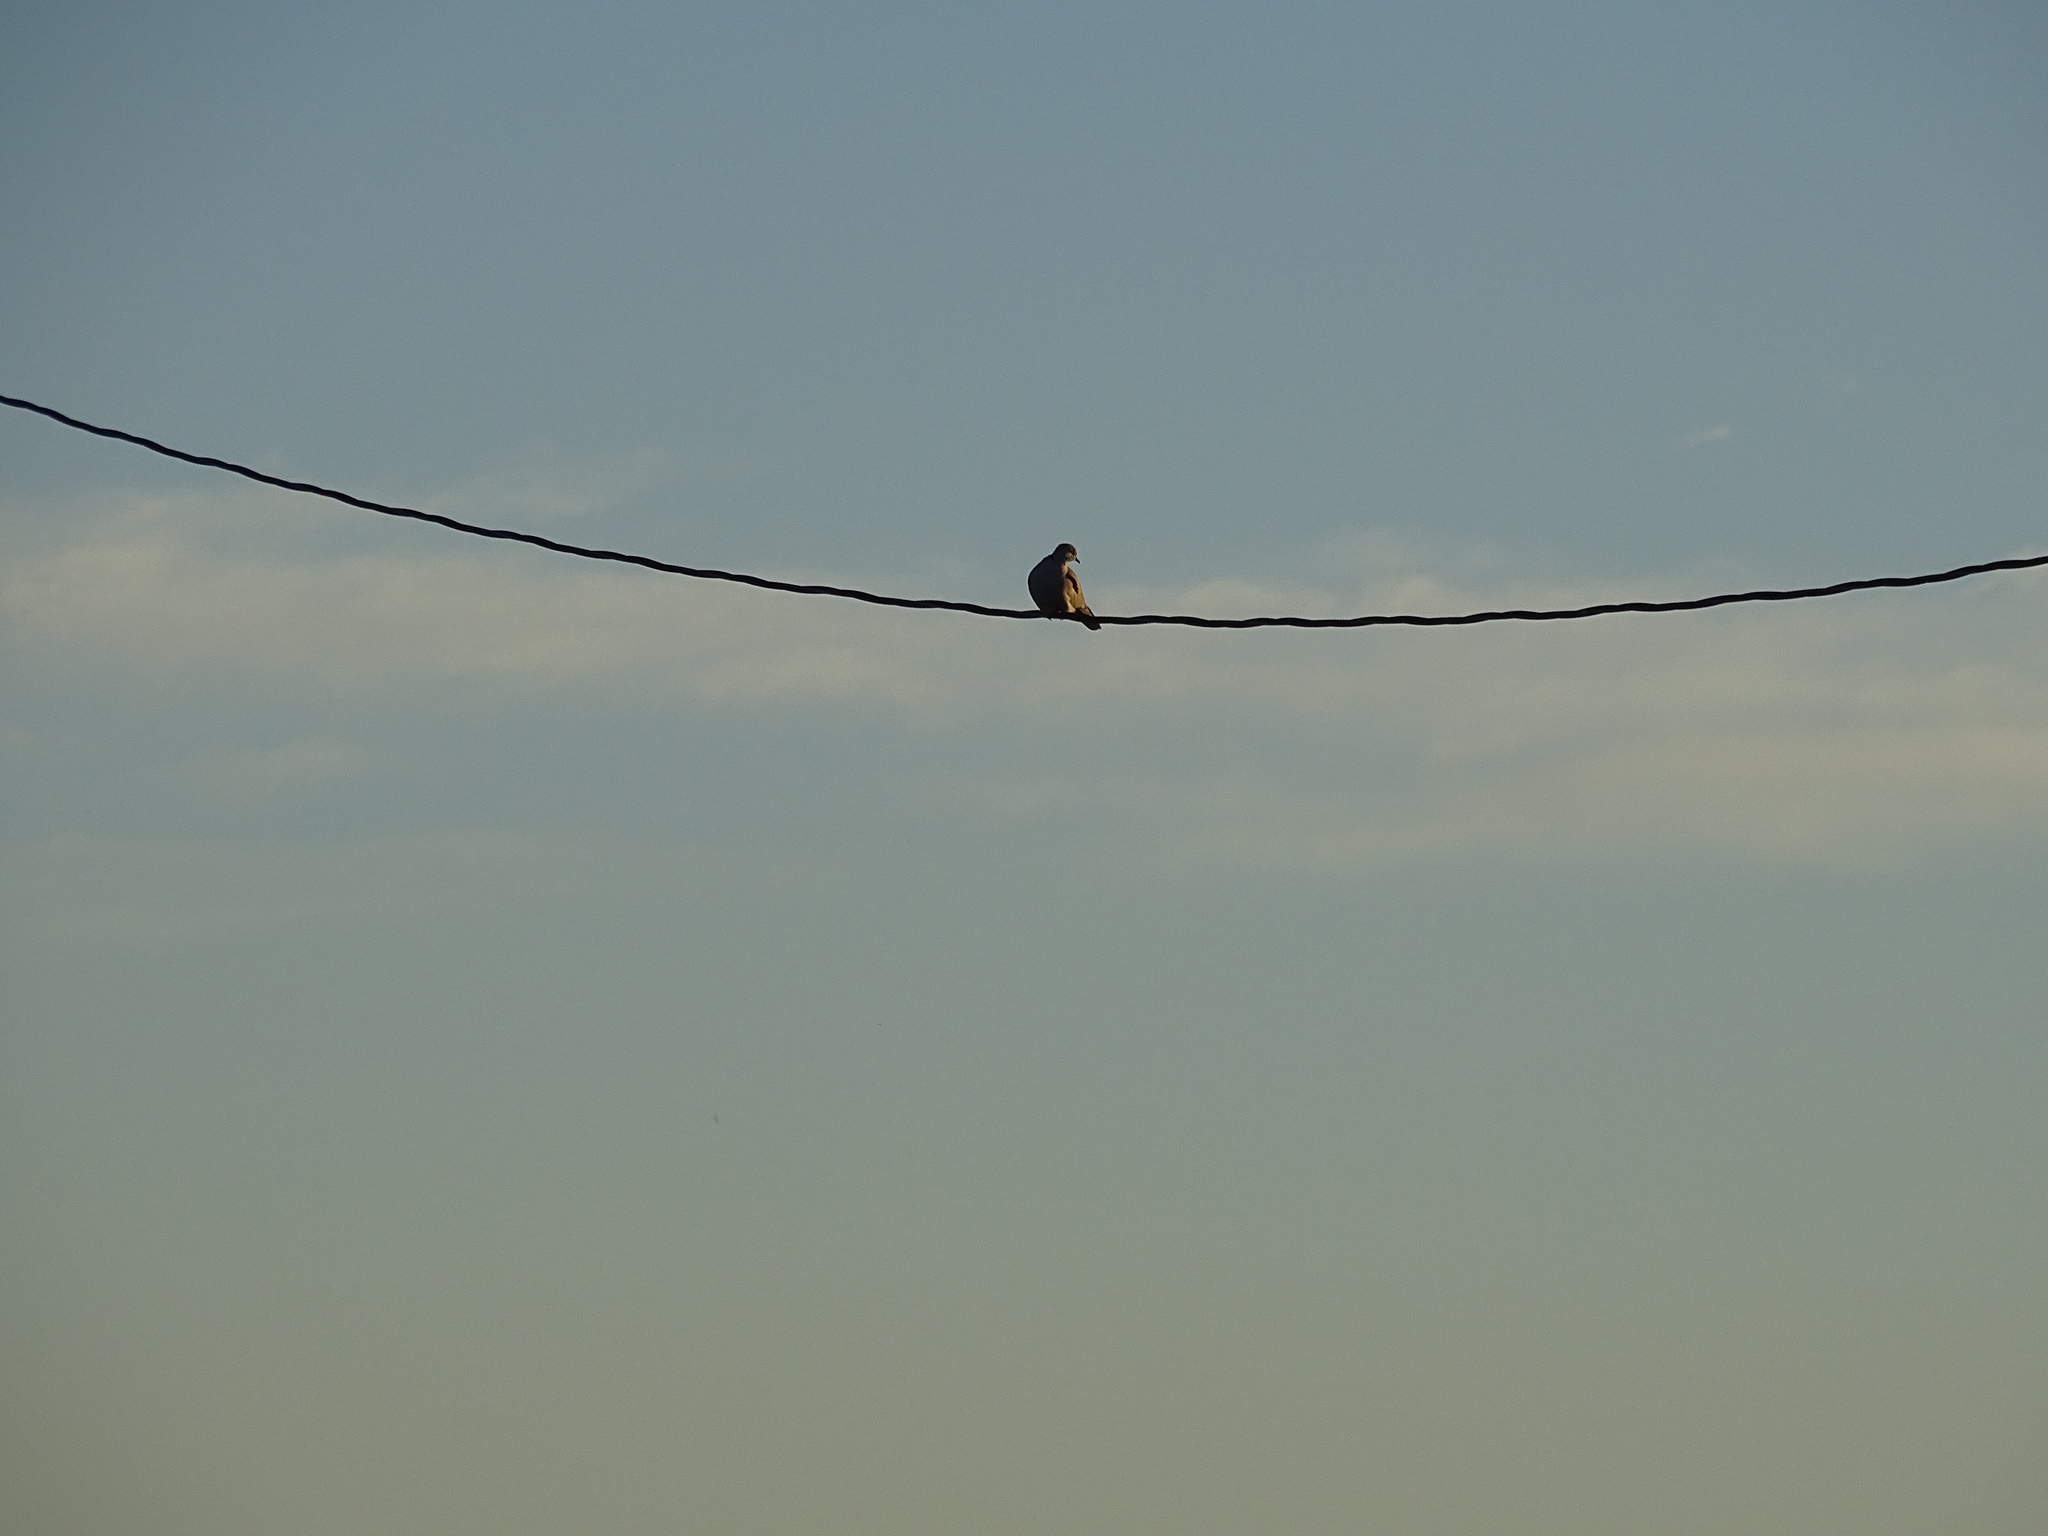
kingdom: Animalia
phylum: Chordata
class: Aves
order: Columbiformes
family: Columbidae
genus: Streptopelia
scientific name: Streptopelia decaocto
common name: Eurasian collared dove
